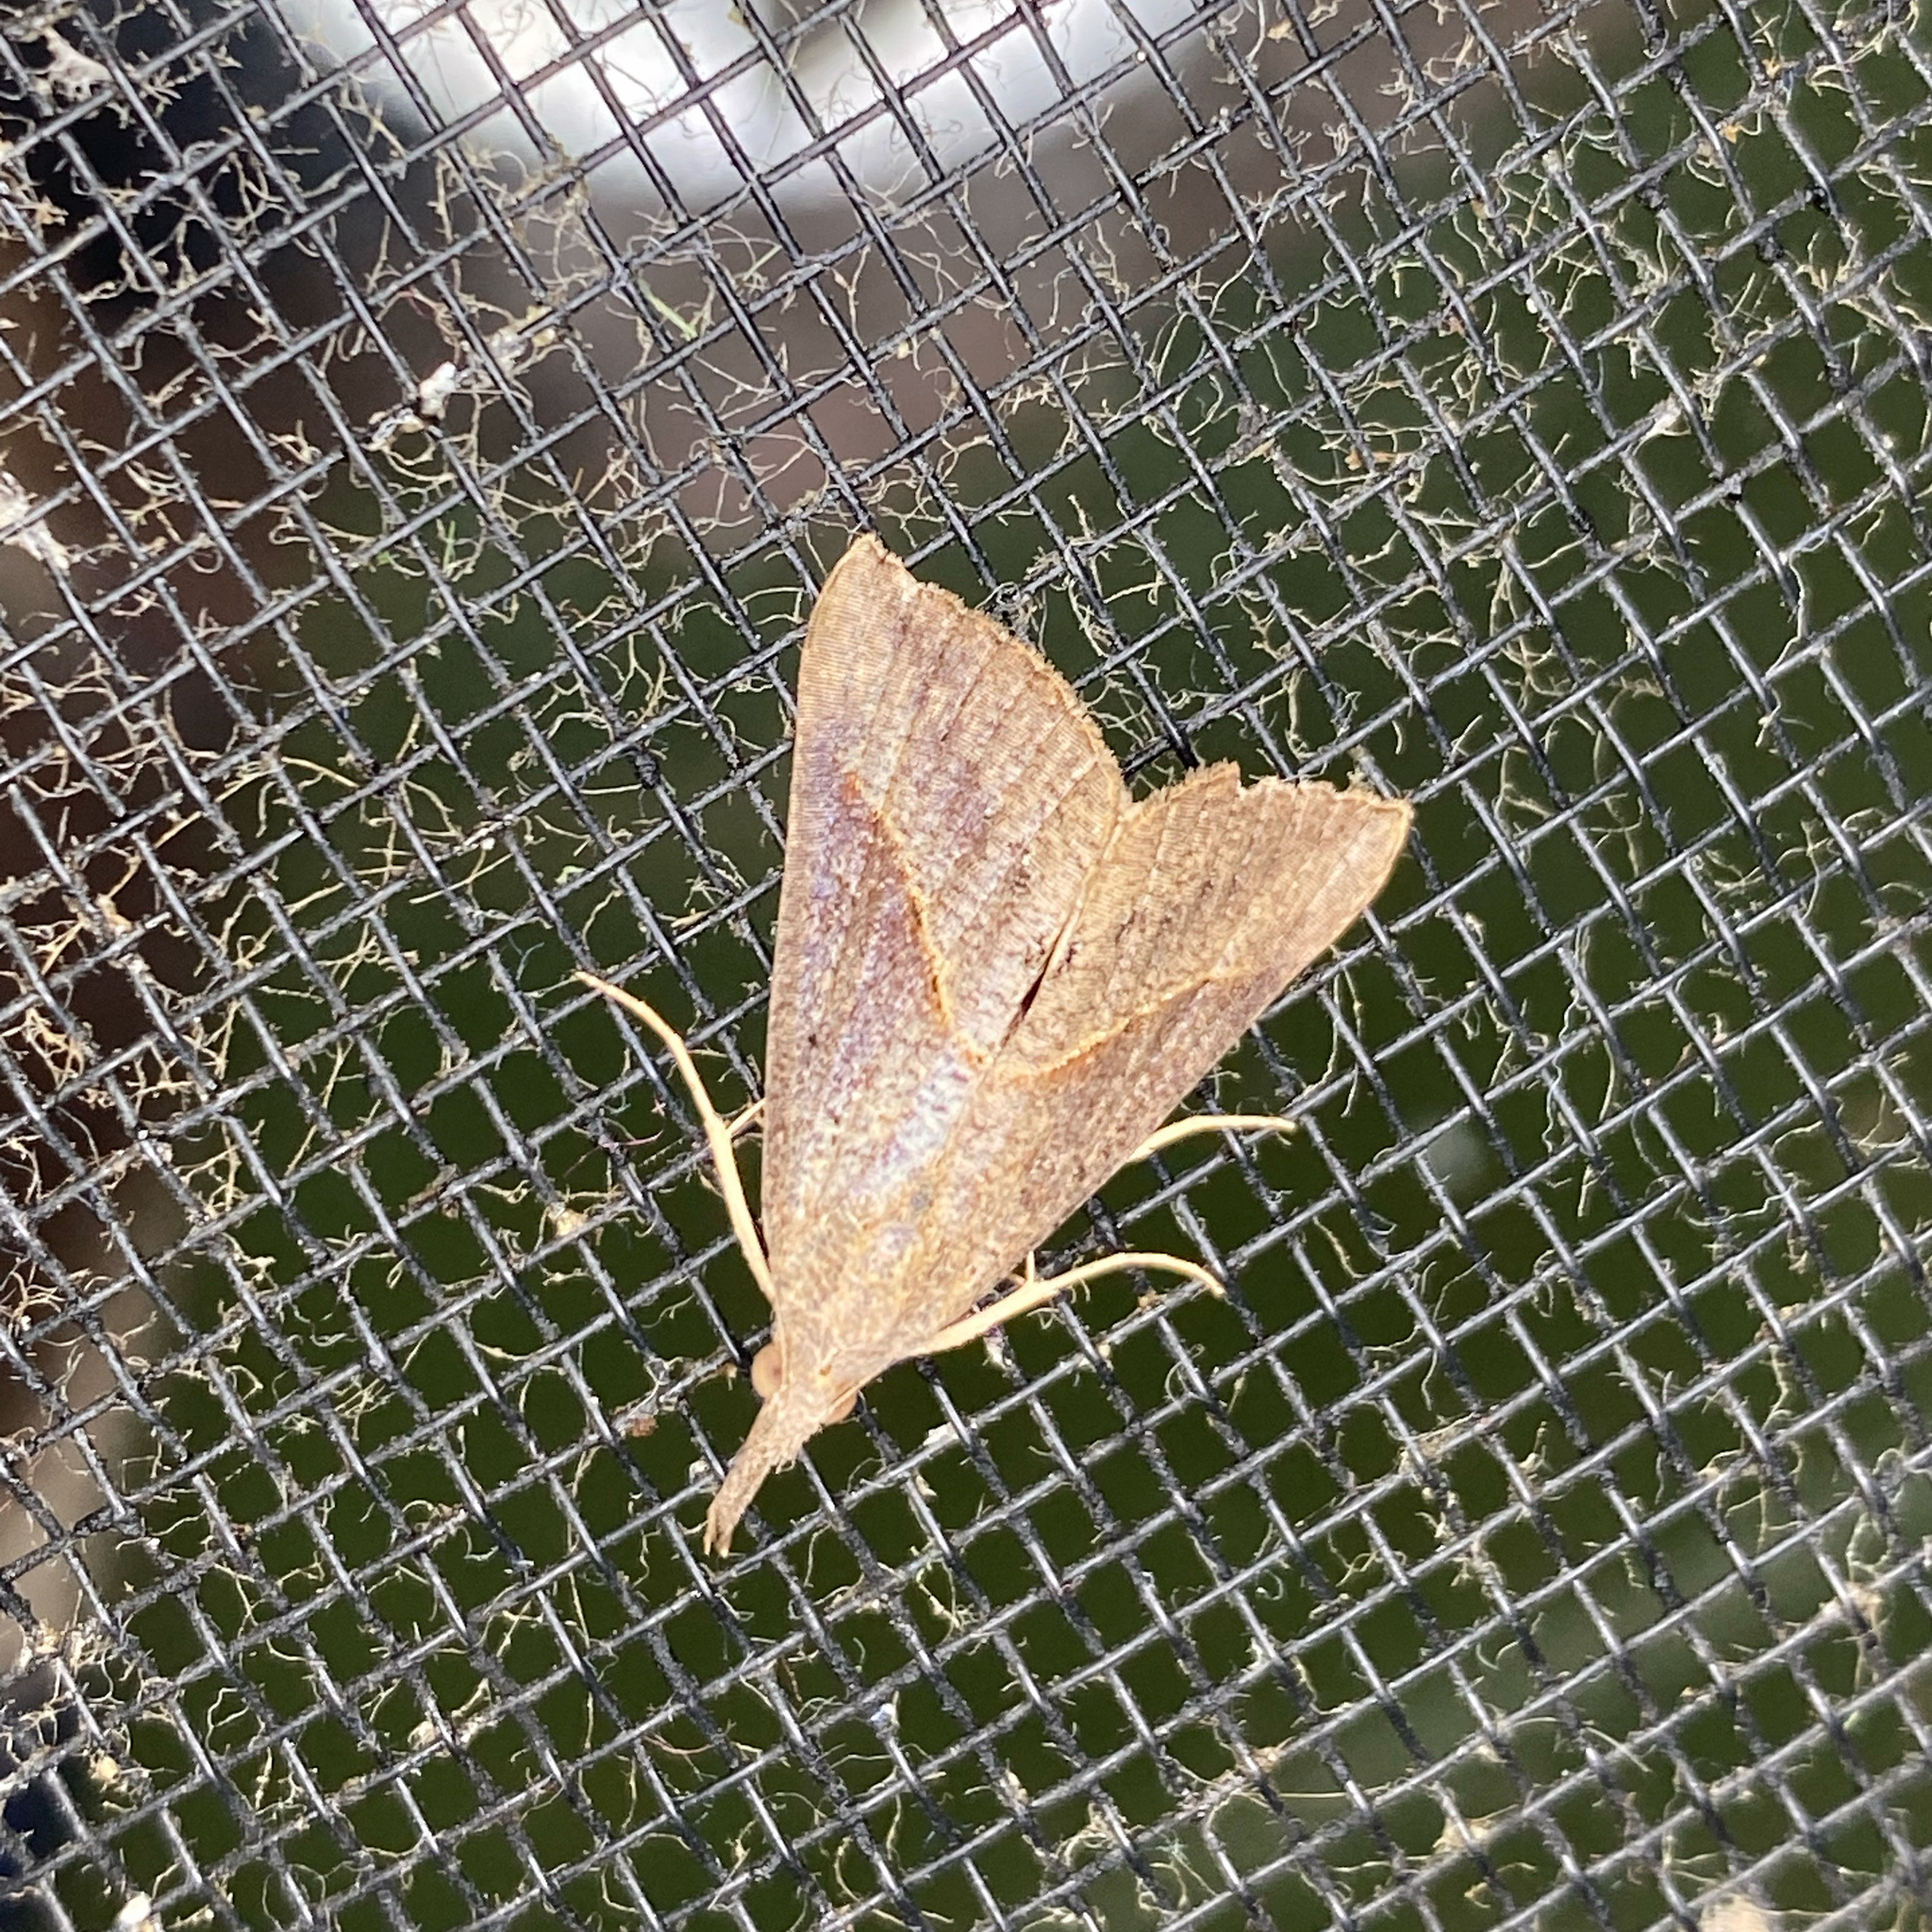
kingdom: Animalia
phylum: Arthropoda
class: Insecta
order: Lepidoptera
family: Erebidae
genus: Hypena
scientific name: Hypena lividalis
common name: Chevron snout
